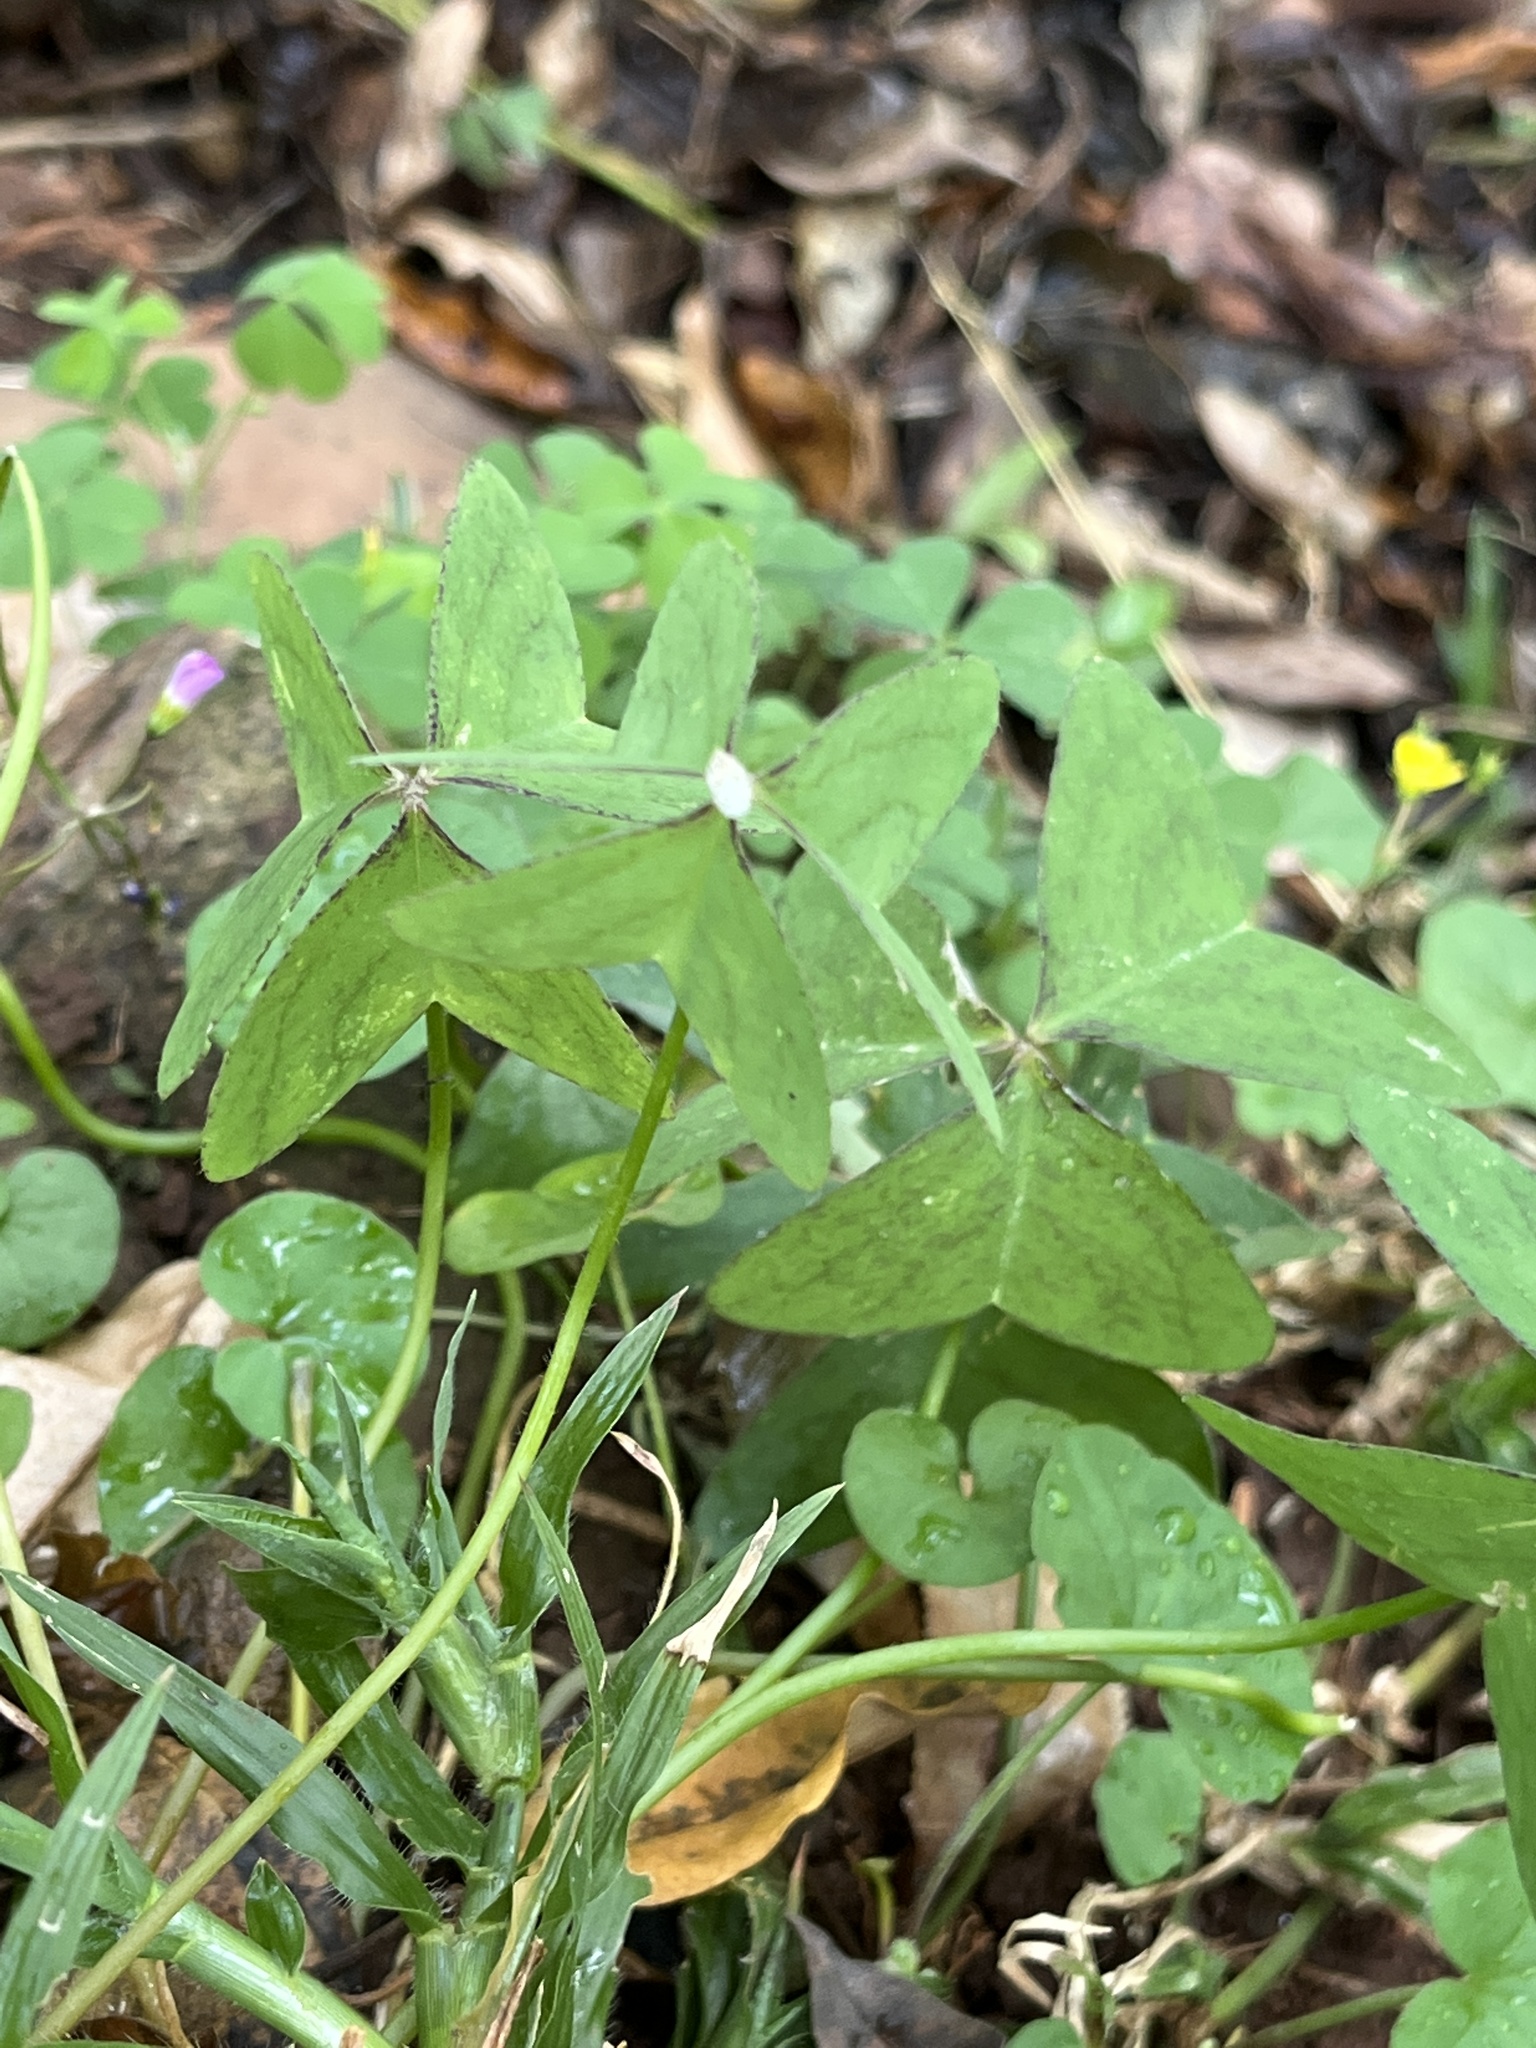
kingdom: Plantae
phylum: Tracheophyta
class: Magnoliopsida
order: Oxalidales
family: Oxalidaceae
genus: Oxalis
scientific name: Oxalis latifolia
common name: Garden pink-sorrel
